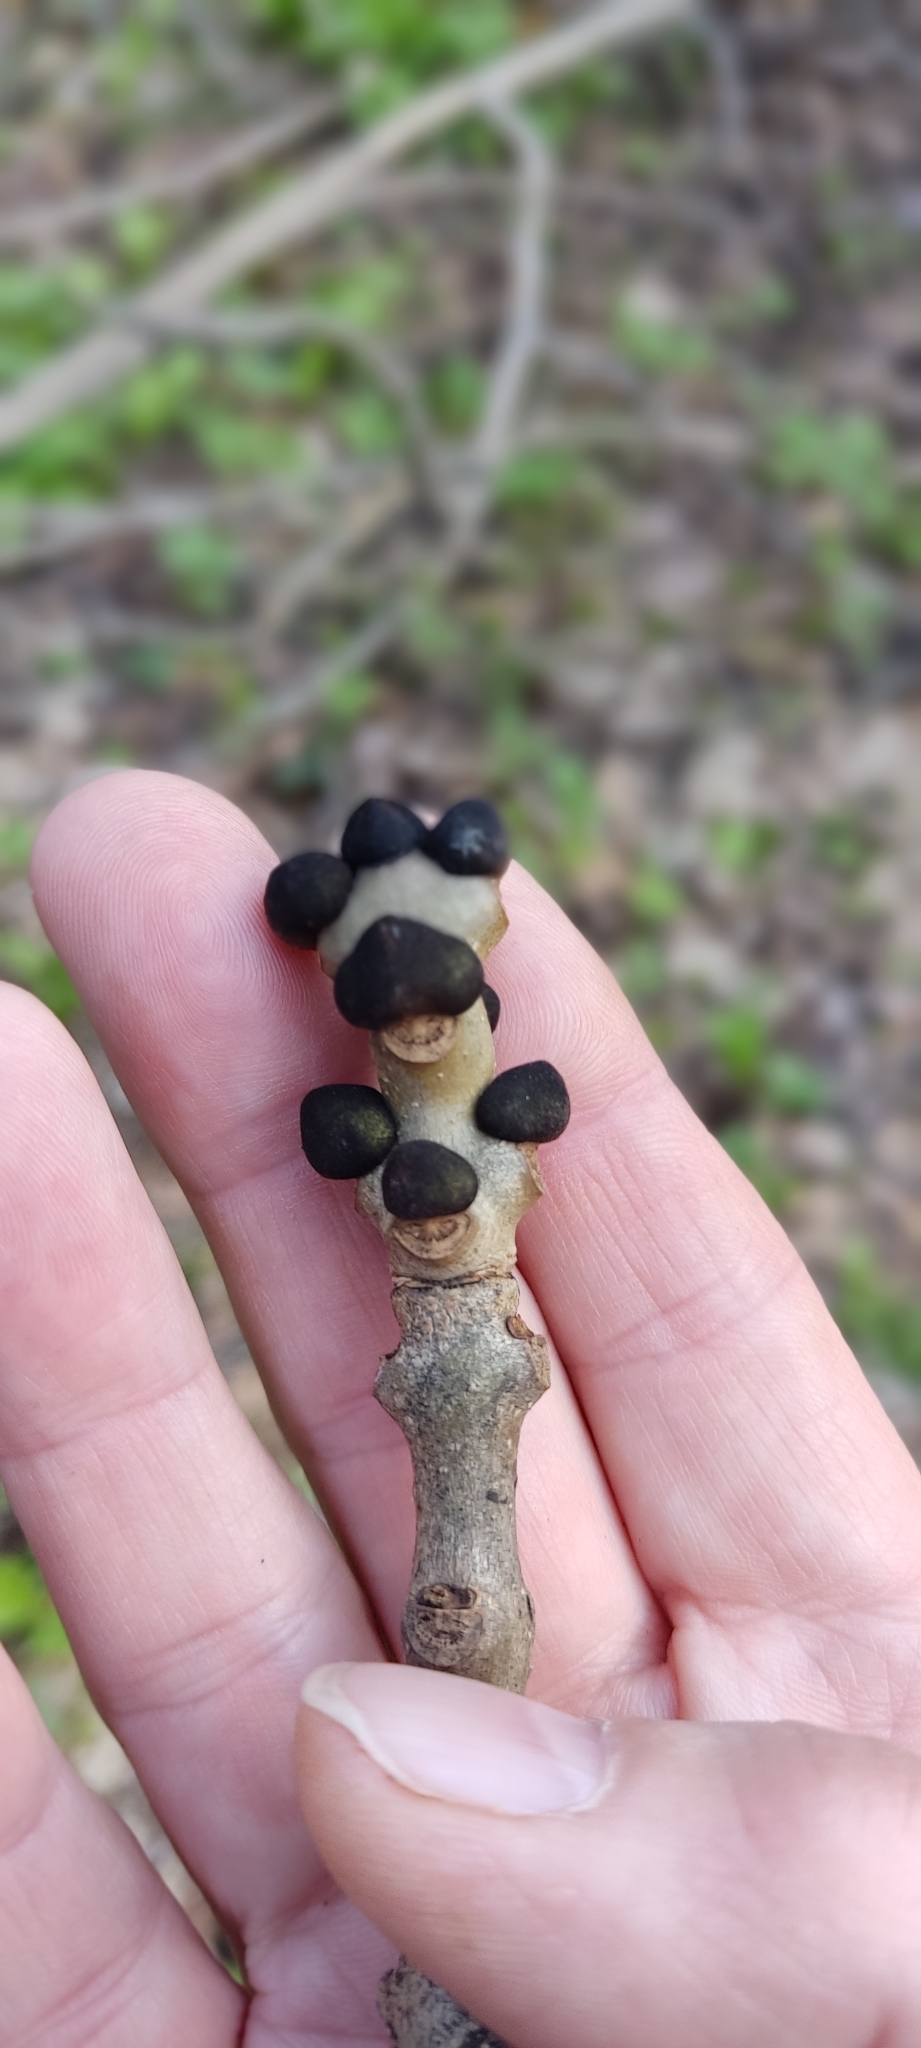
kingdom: Plantae
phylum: Tracheophyta
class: Magnoliopsida
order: Lamiales
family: Oleaceae
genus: Fraxinus
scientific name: Fraxinus excelsior
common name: European ash
